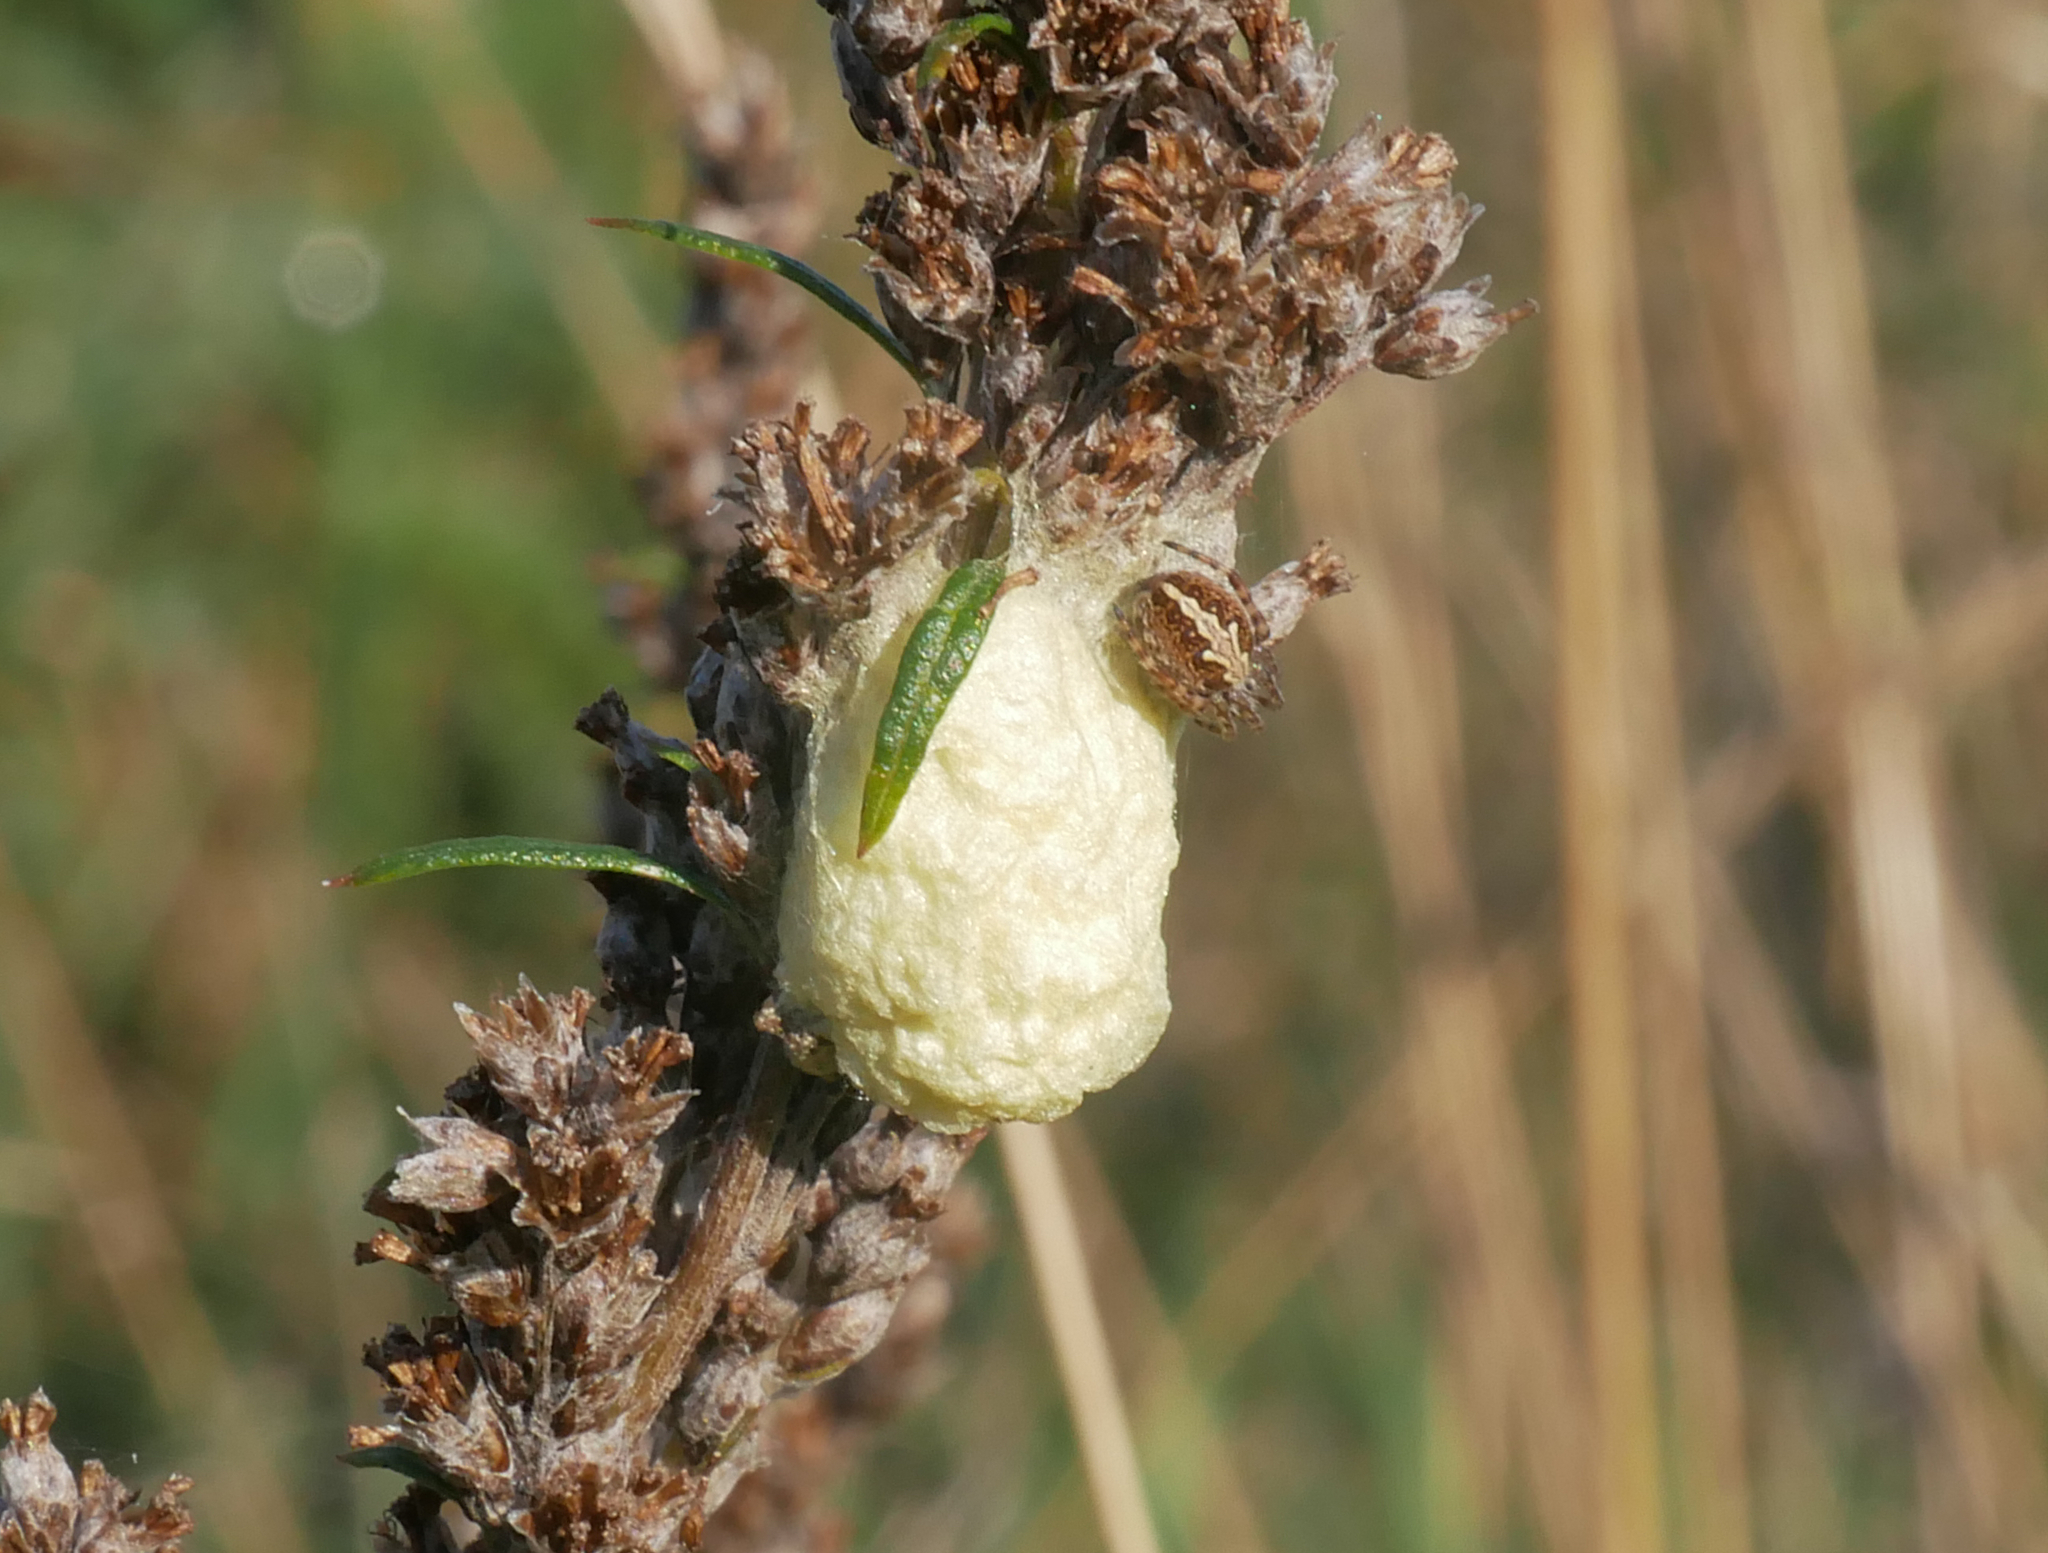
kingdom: Animalia
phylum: Arthropoda
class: Arachnida
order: Araneae
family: Araneidae
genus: Aculepeira
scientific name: Aculepeira ceropegia
